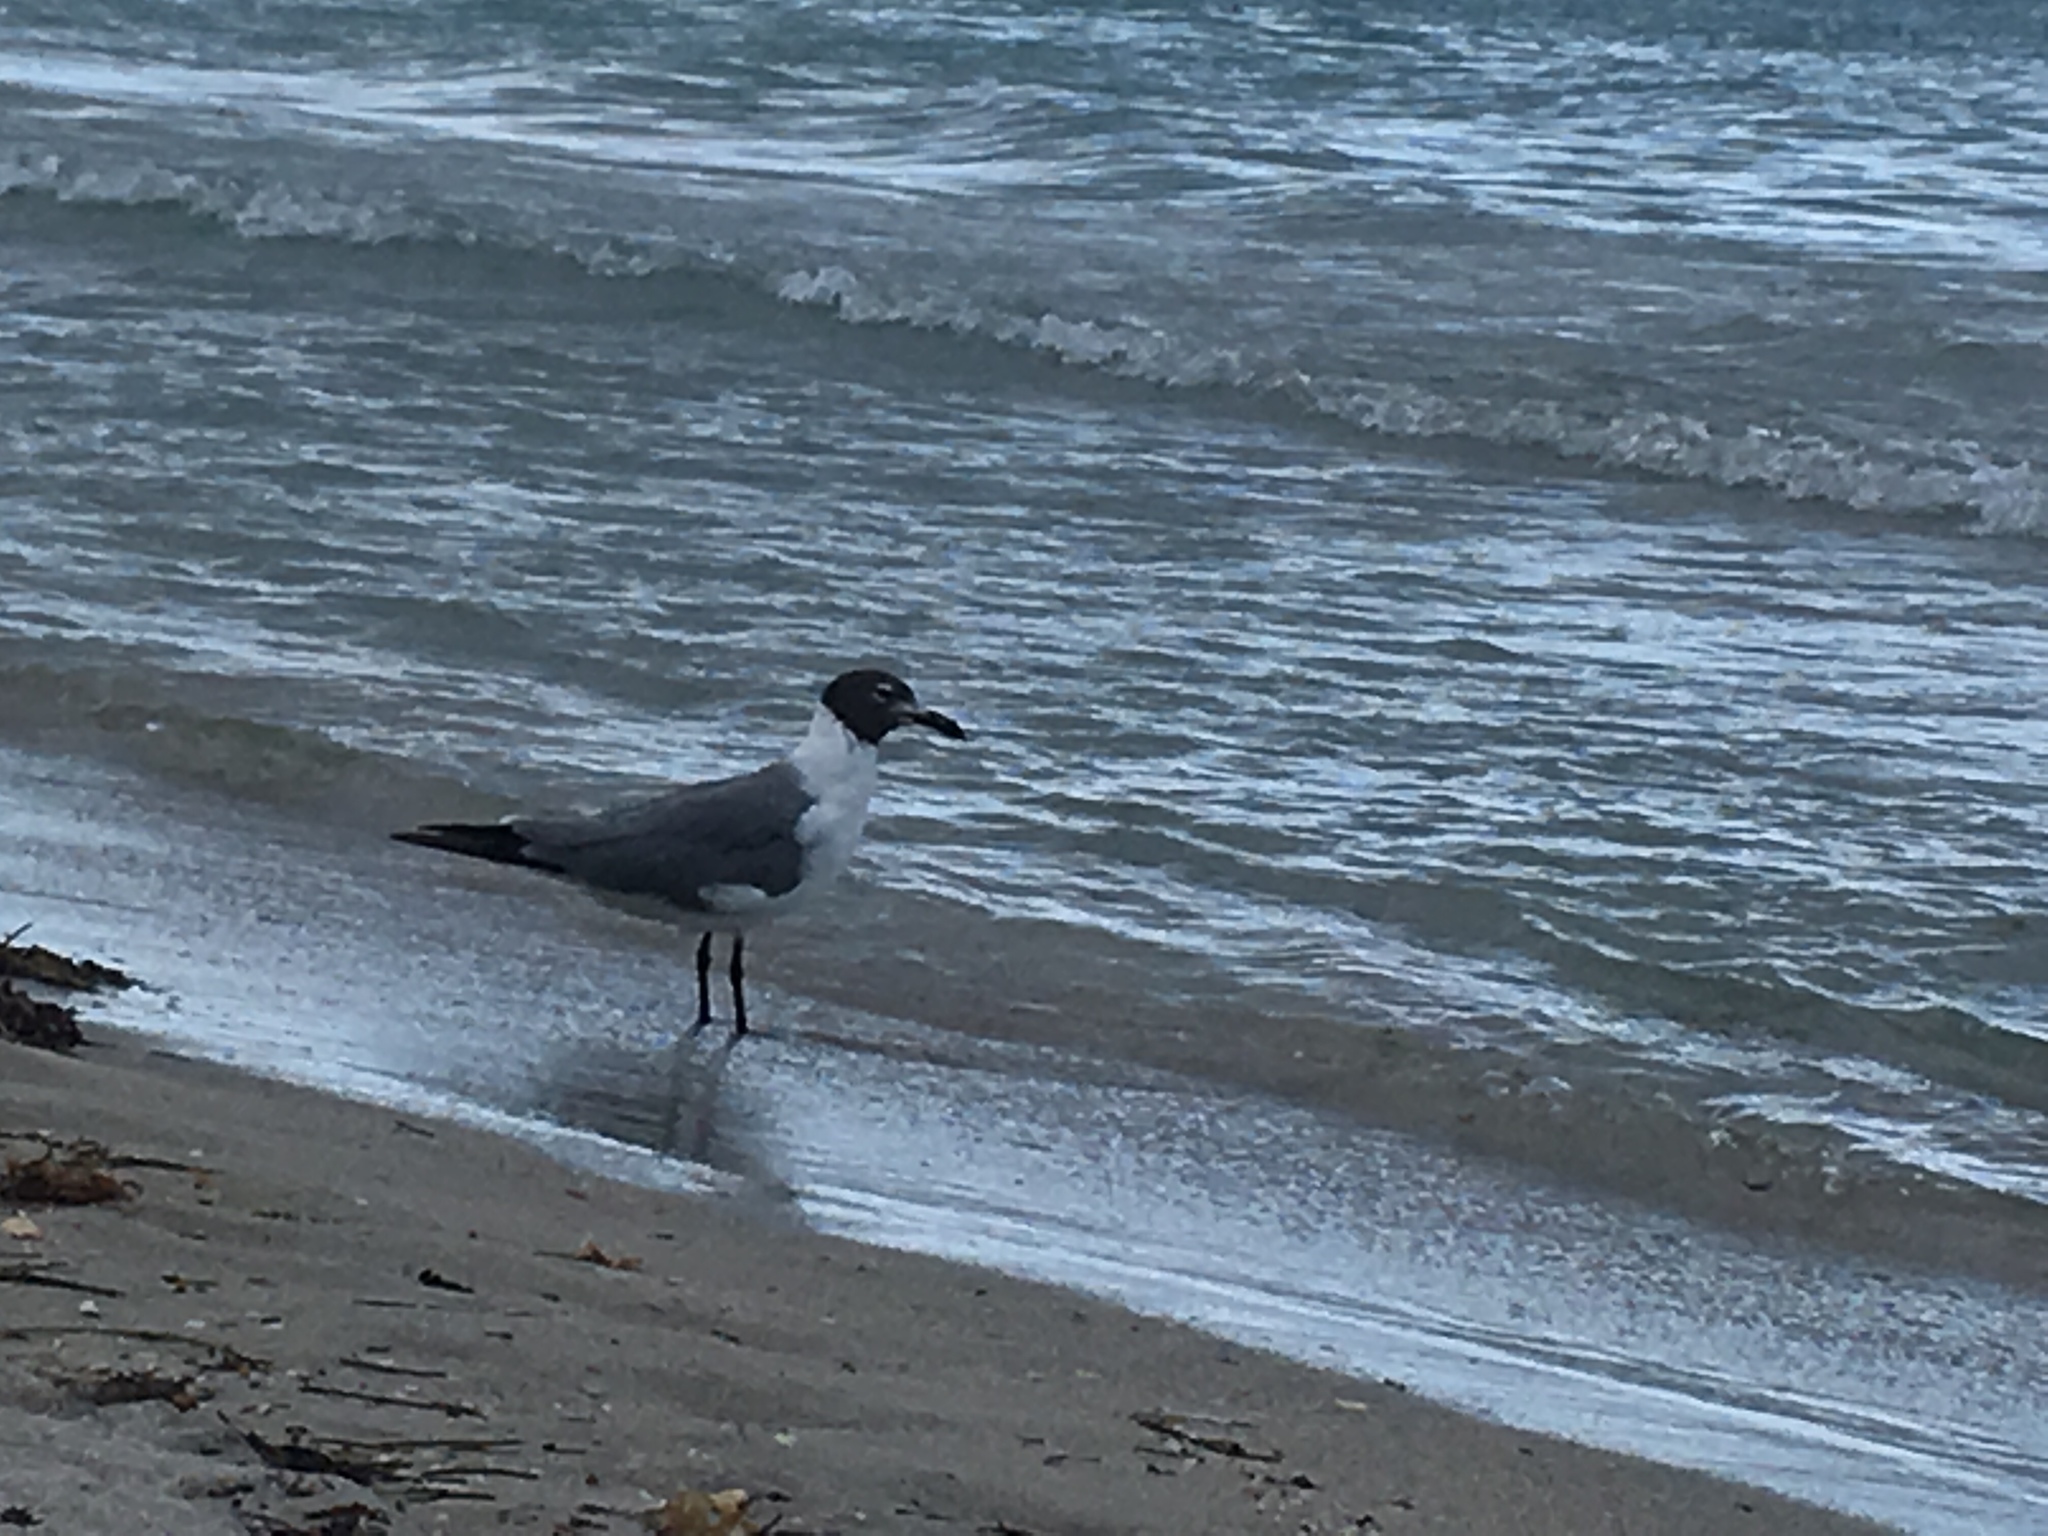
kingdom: Animalia
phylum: Chordata
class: Aves
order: Charadriiformes
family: Laridae
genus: Leucophaeus
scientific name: Leucophaeus atricilla
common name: Laughing gull
